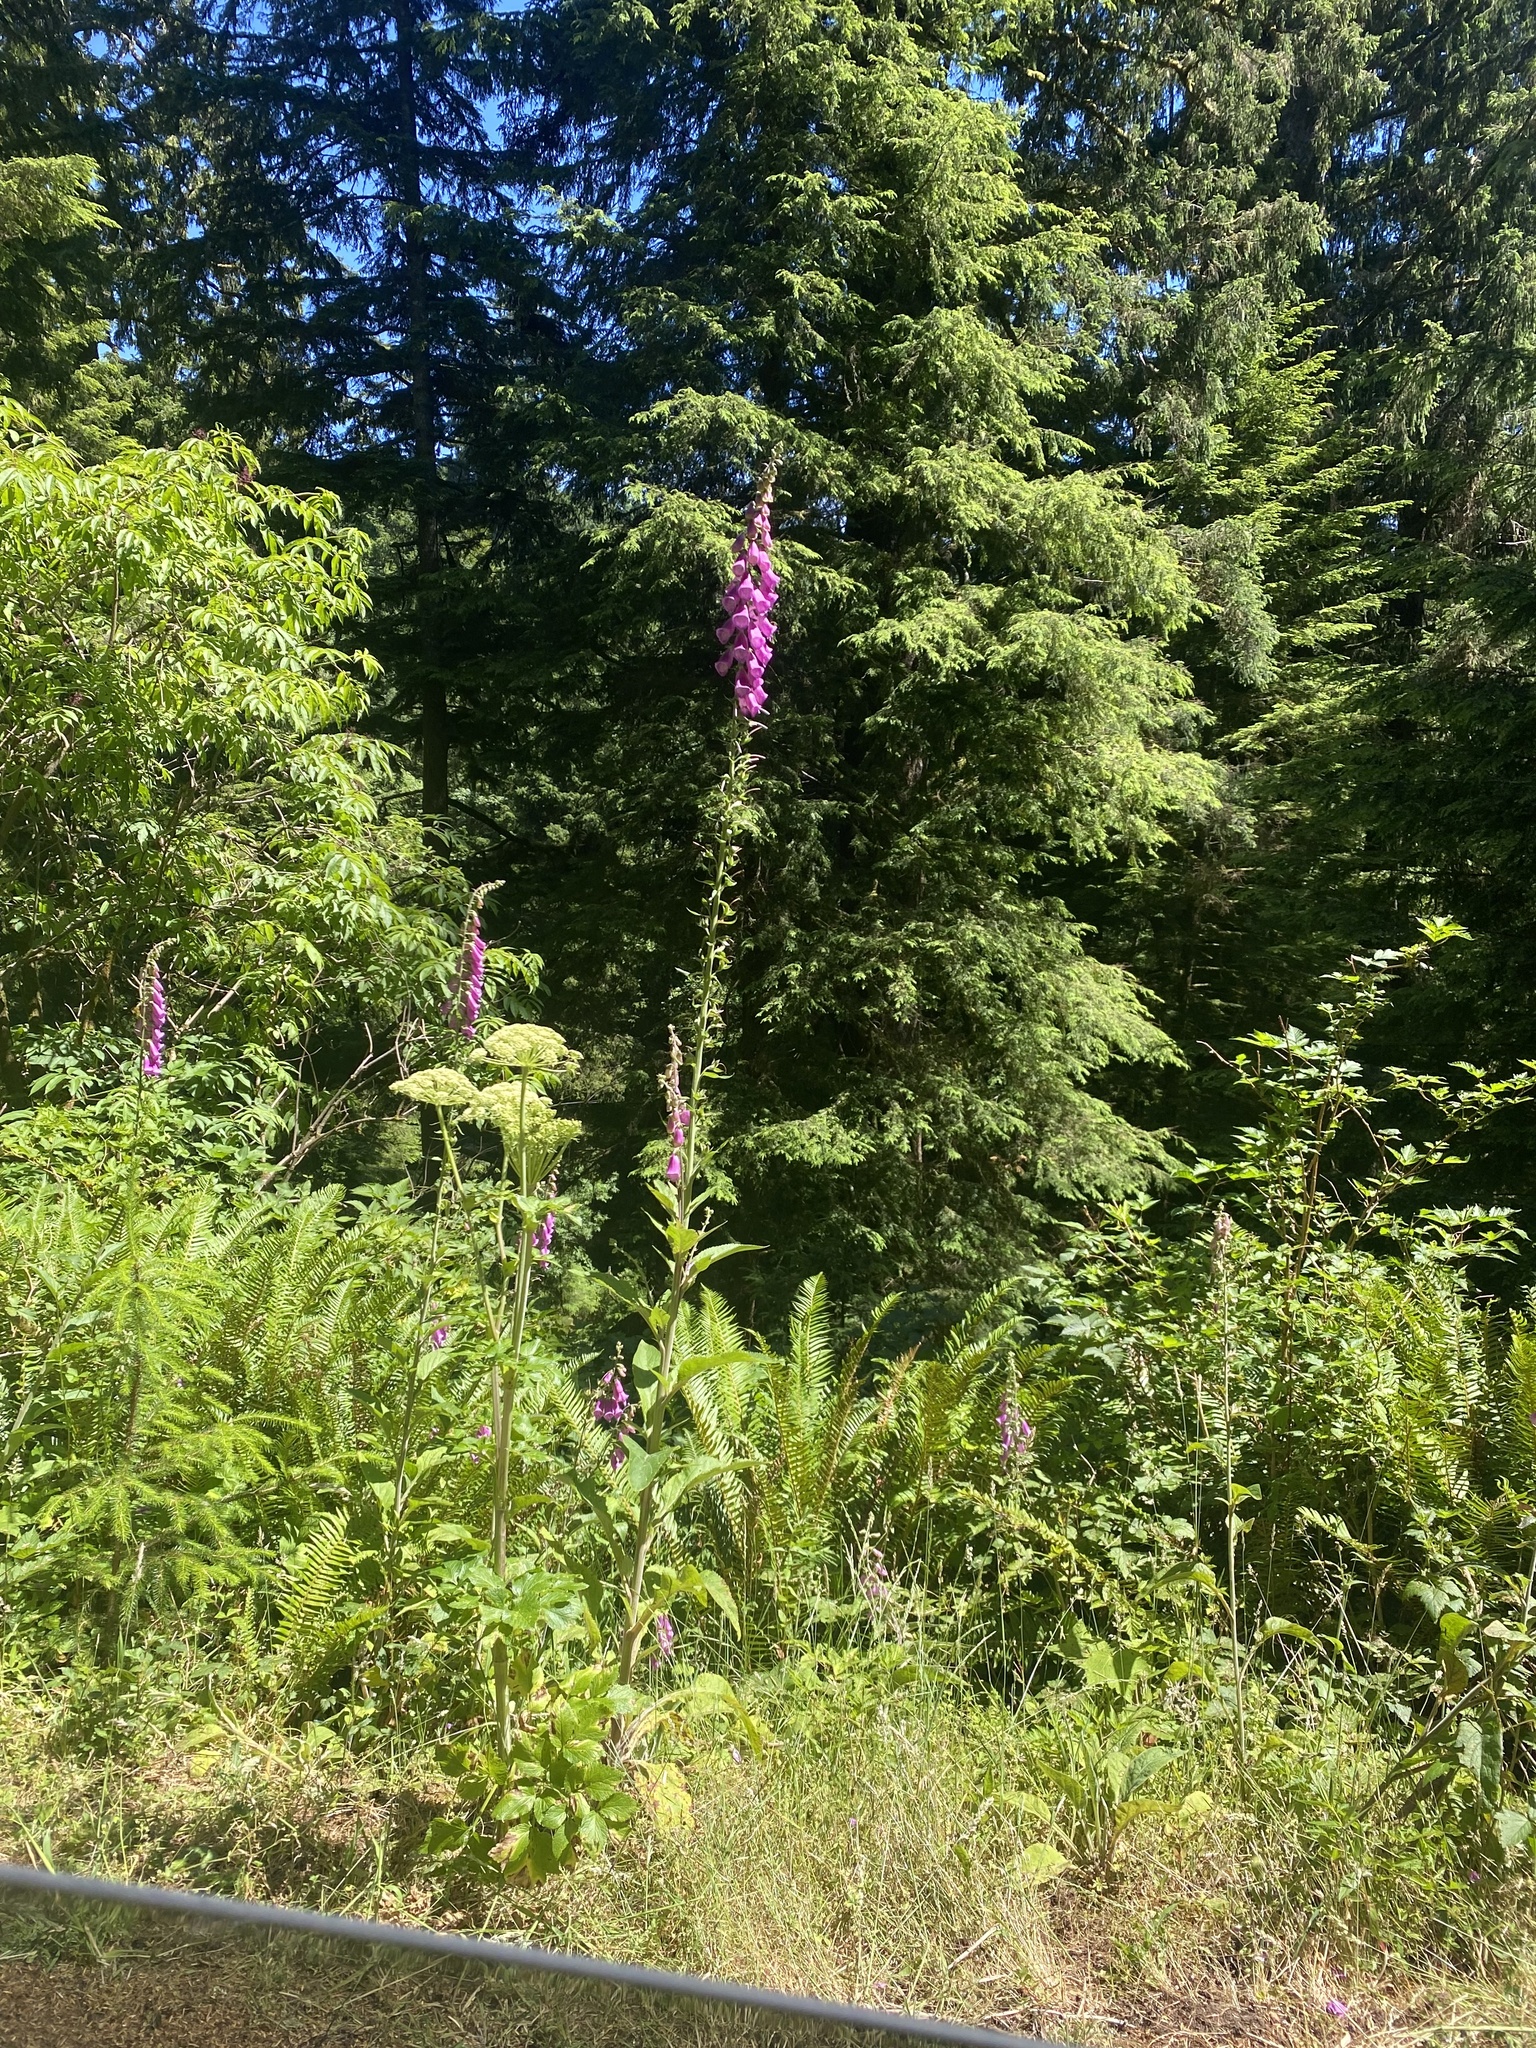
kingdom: Plantae
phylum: Tracheophyta
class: Magnoliopsida
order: Lamiales
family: Plantaginaceae
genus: Digitalis
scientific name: Digitalis purpurea
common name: Foxglove
